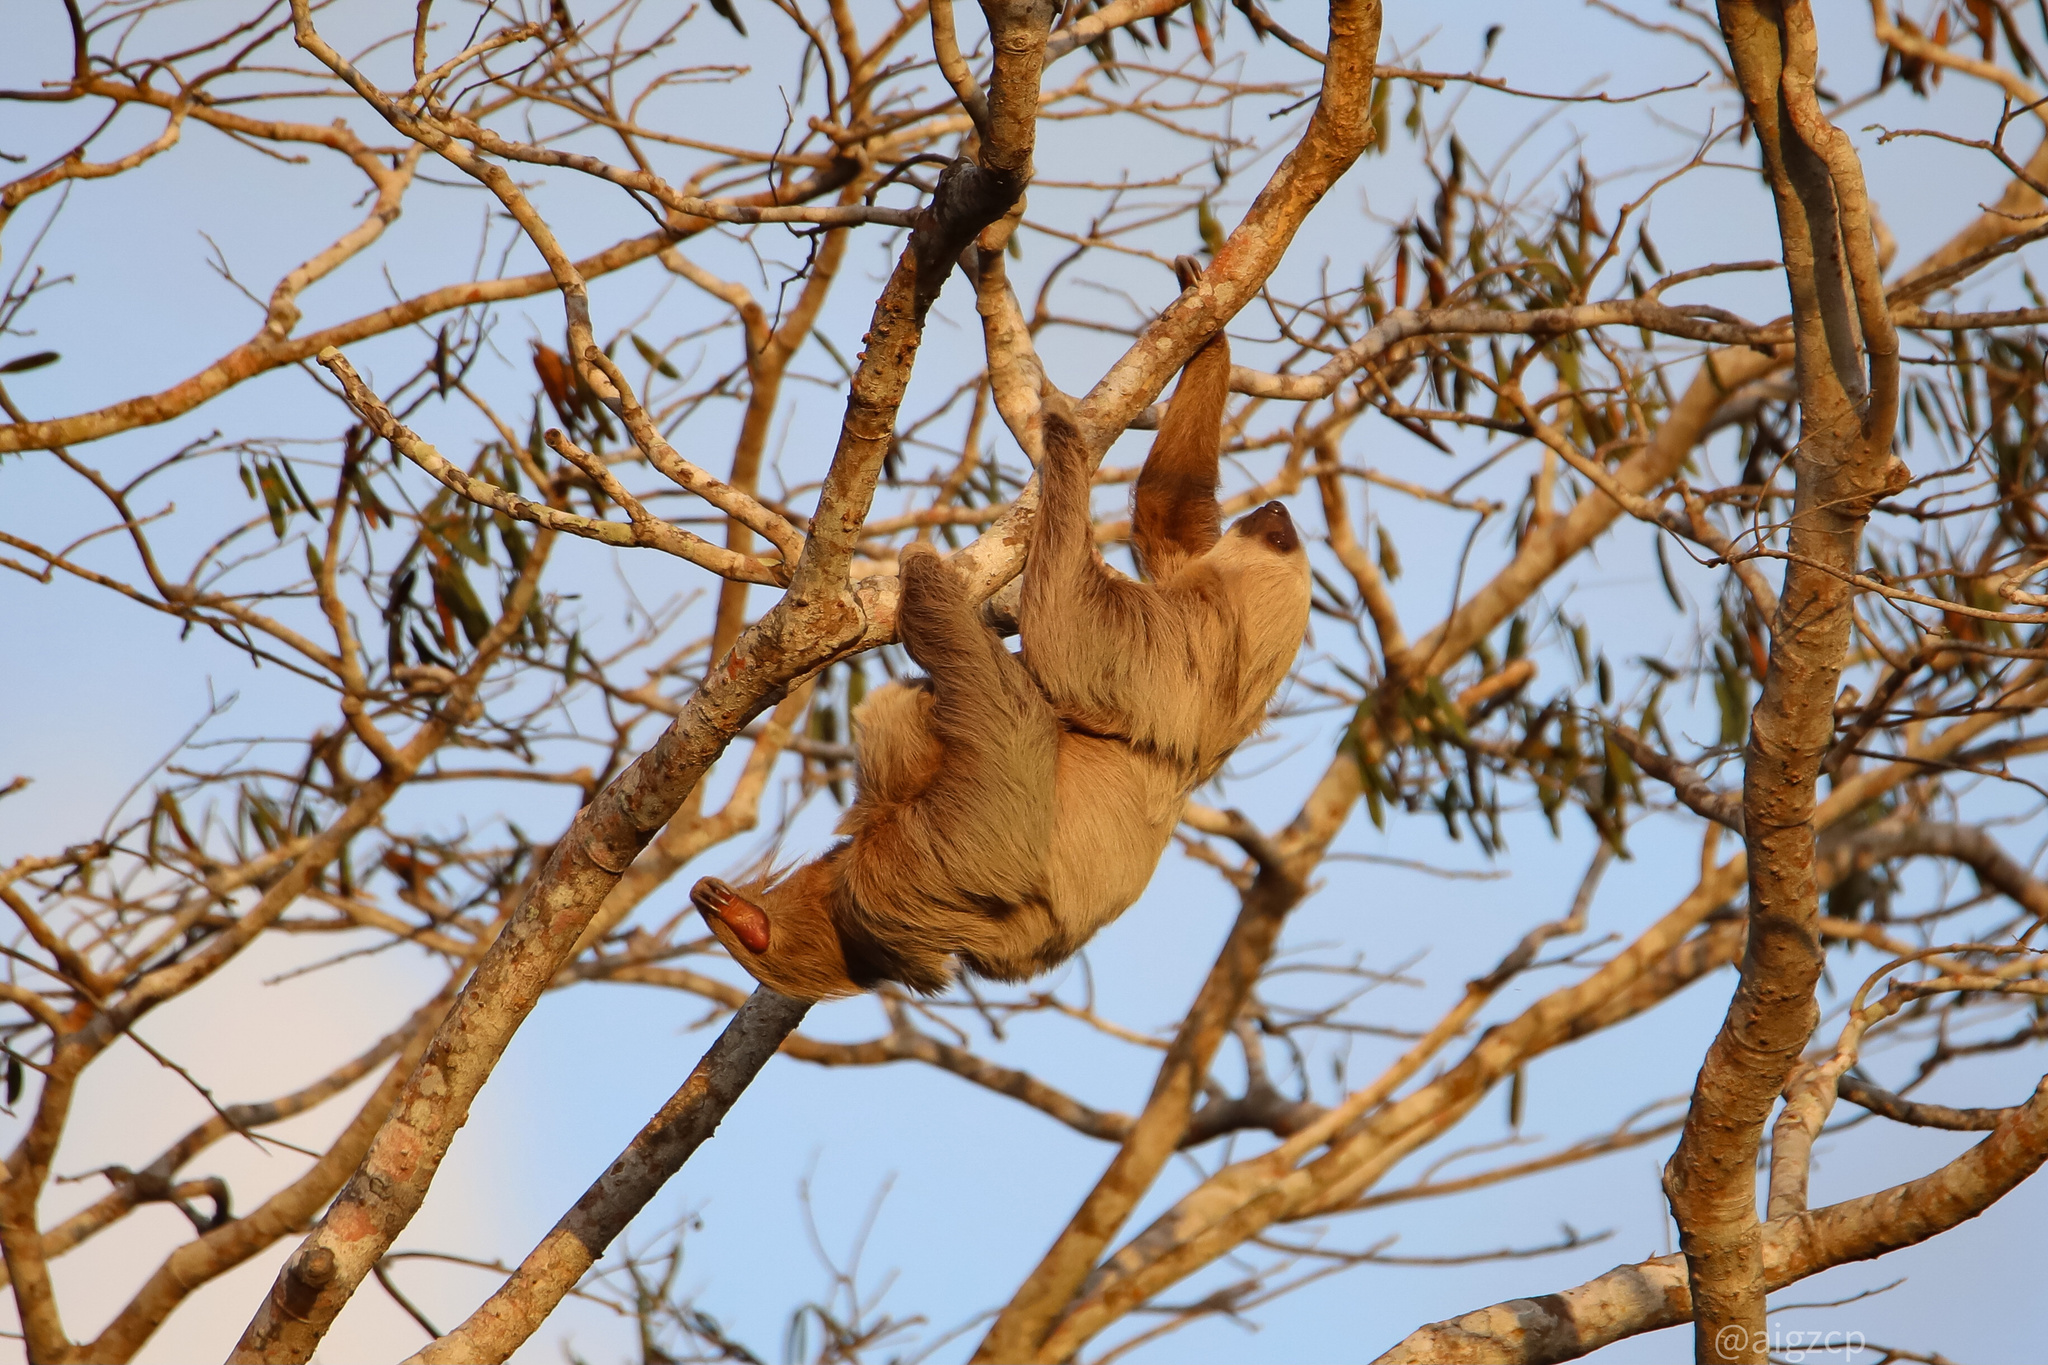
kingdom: Animalia
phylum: Chordata
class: Mammalia
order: Pilosa
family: Megalonychidae
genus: Choloepus
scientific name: Choloepus hoffmanni
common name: Hoffmann's two-toed sloth
